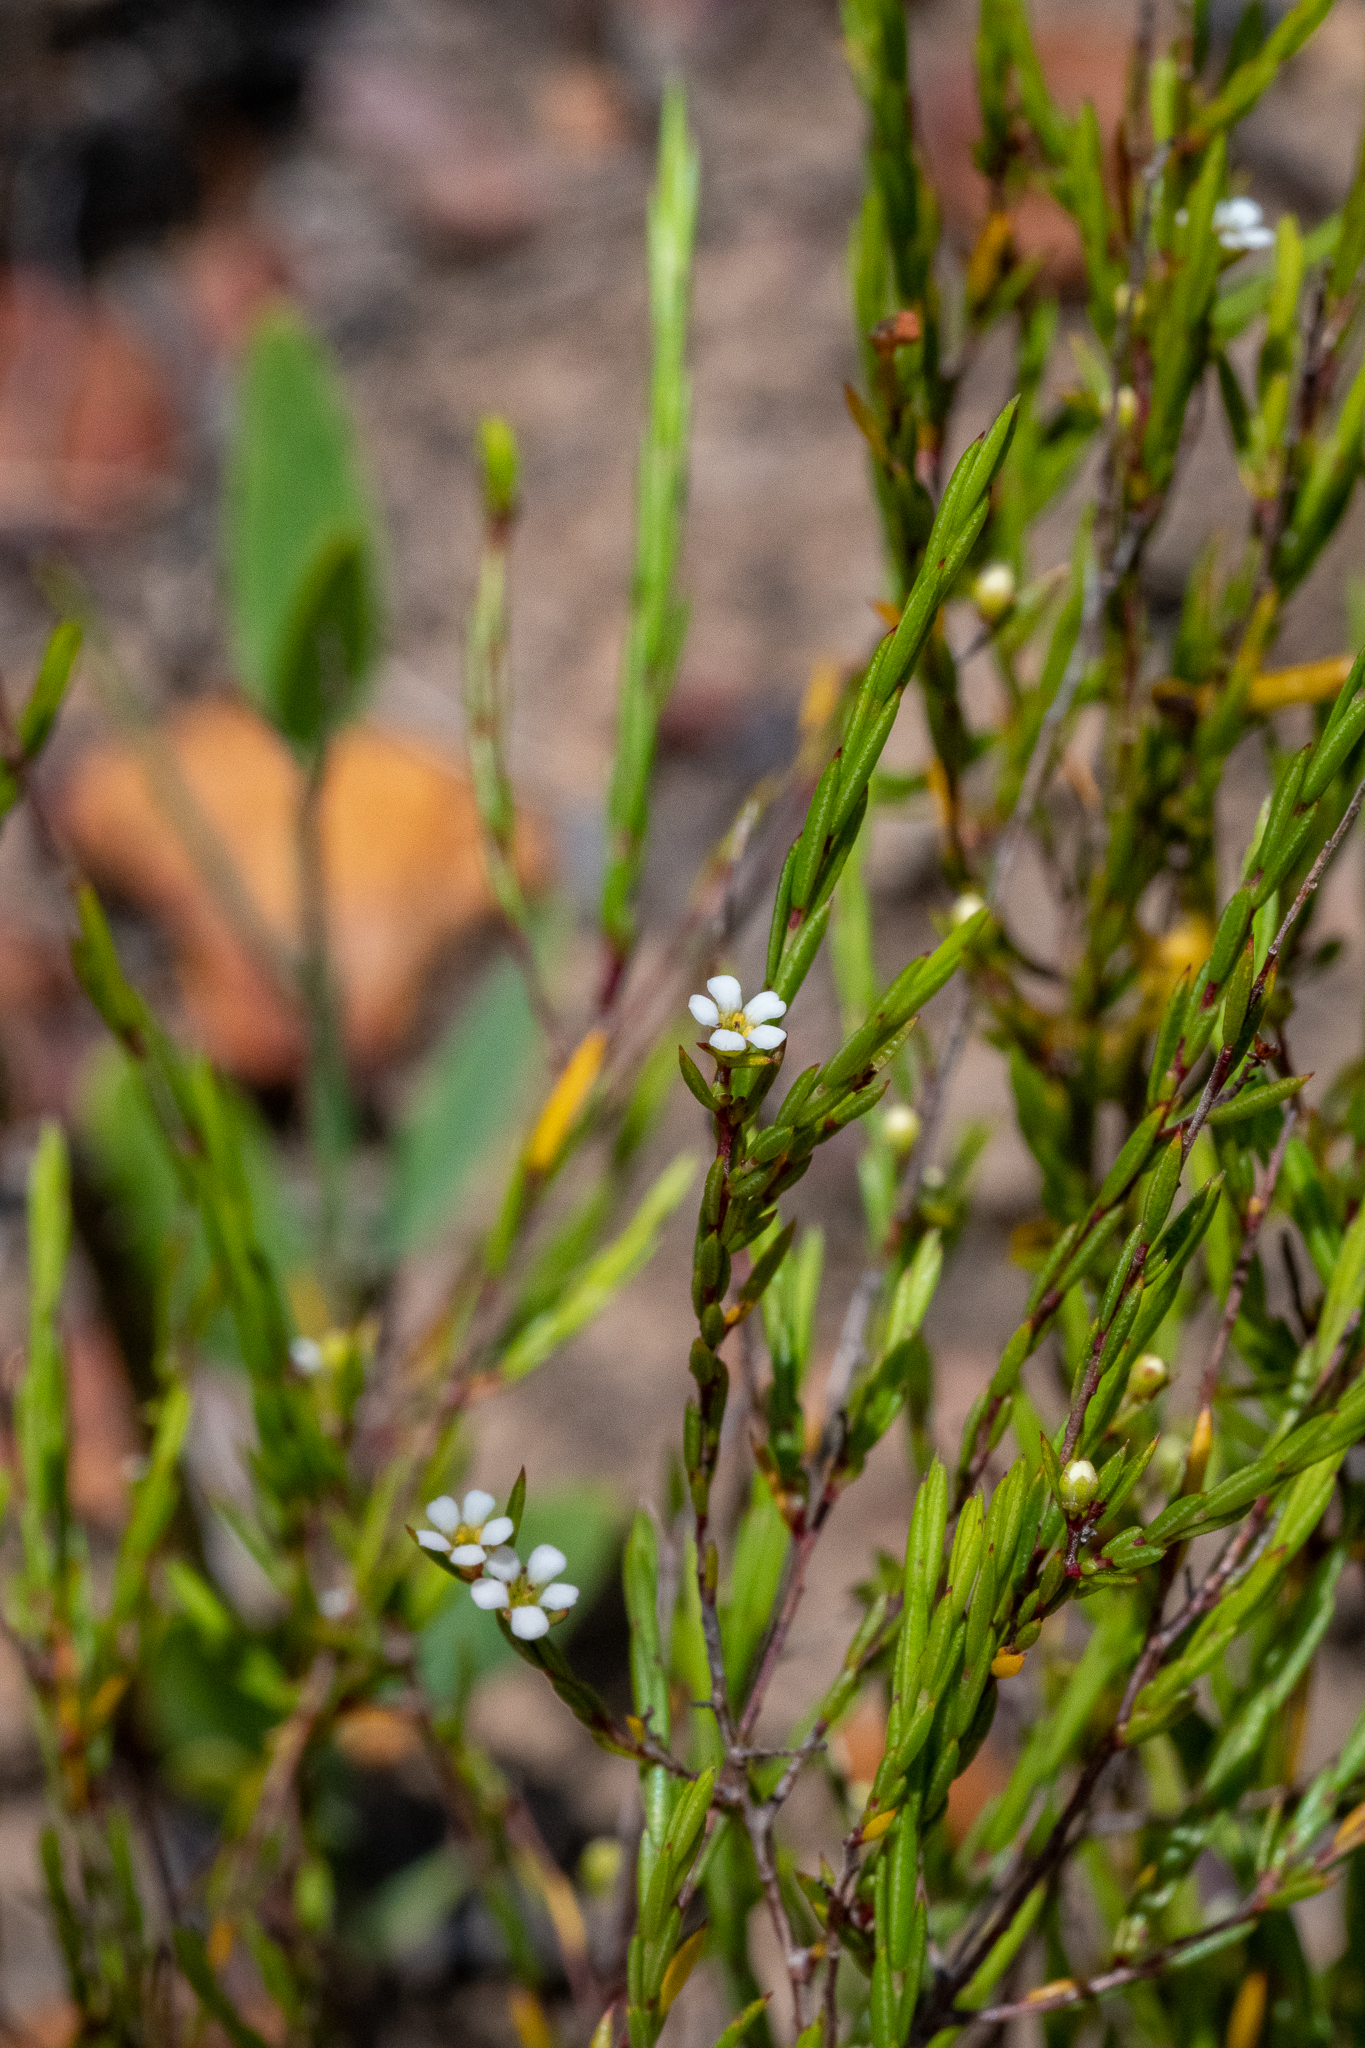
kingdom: Plantae
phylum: Tracheophyta
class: Magnoliopsida
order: Sapindales
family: Rutaceae
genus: Coleonema
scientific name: Coleonema juniperinum
